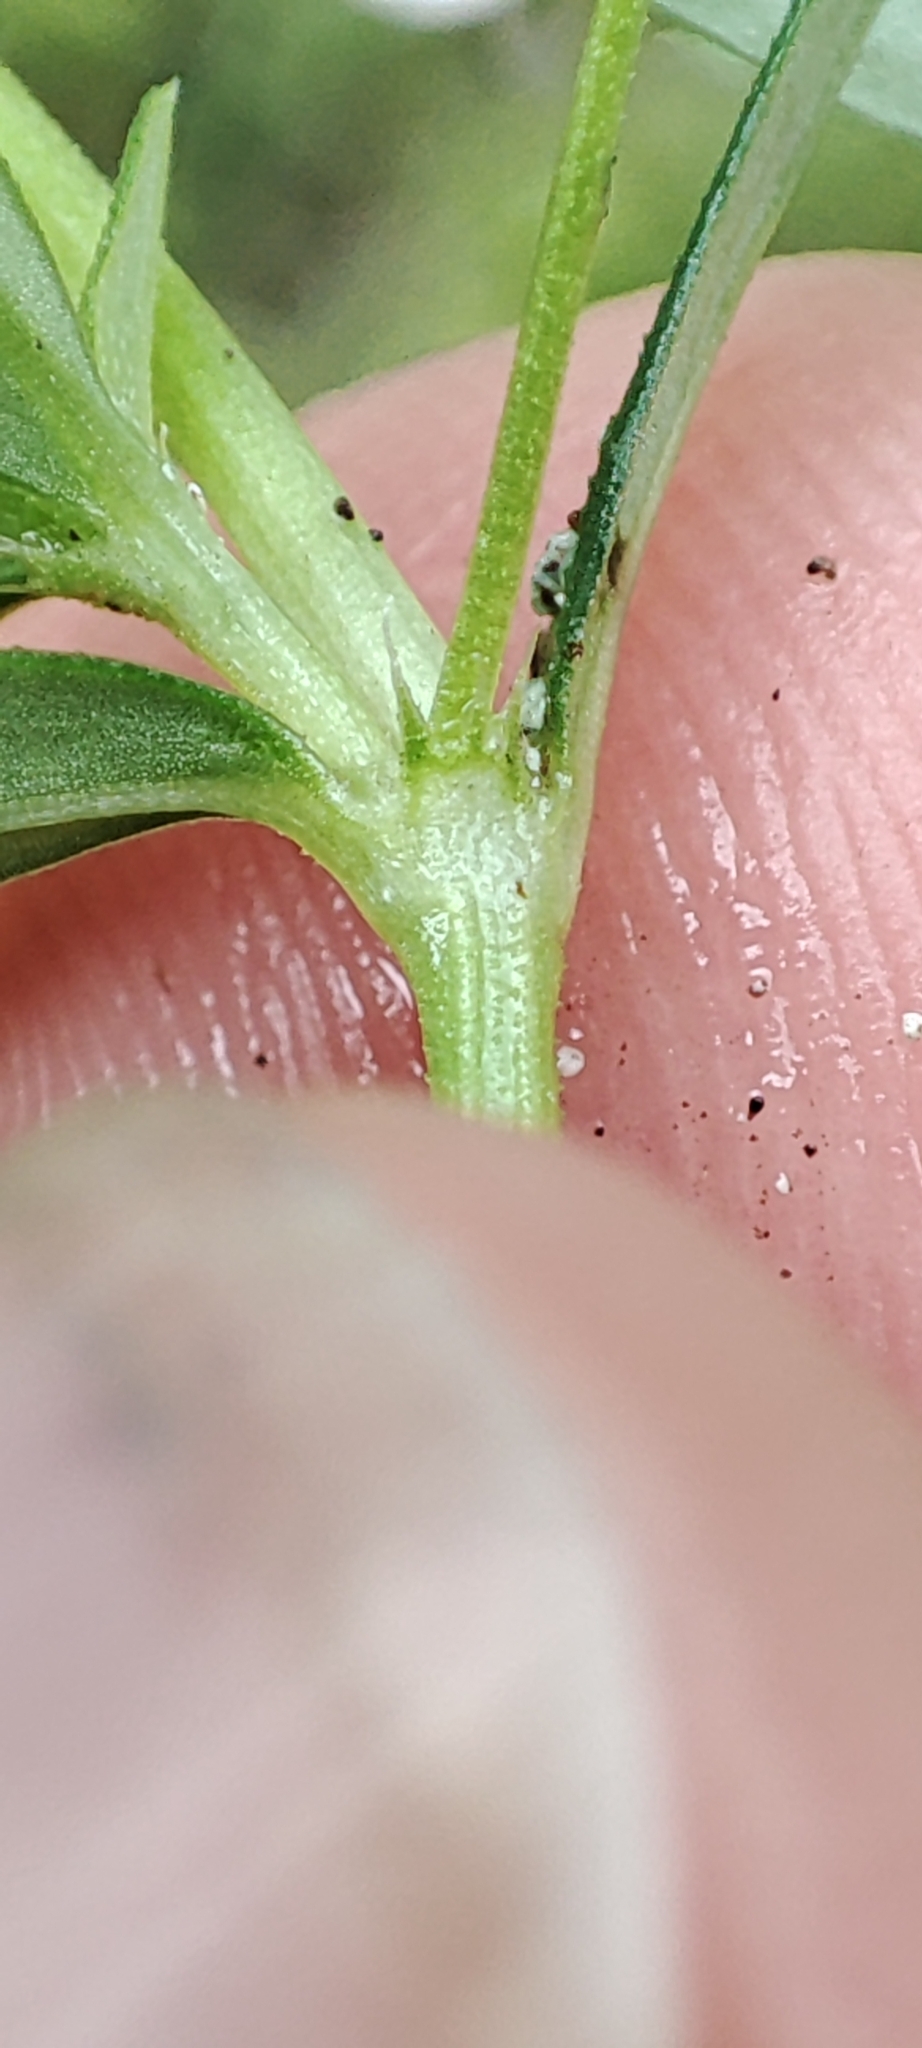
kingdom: Plantae
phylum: Tracheophyta
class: Magnoliopsida
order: Gentianales
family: Rubiaceae
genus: Oldenlandia
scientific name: Oldenlandia corymbosa
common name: Flat-top mille graines
